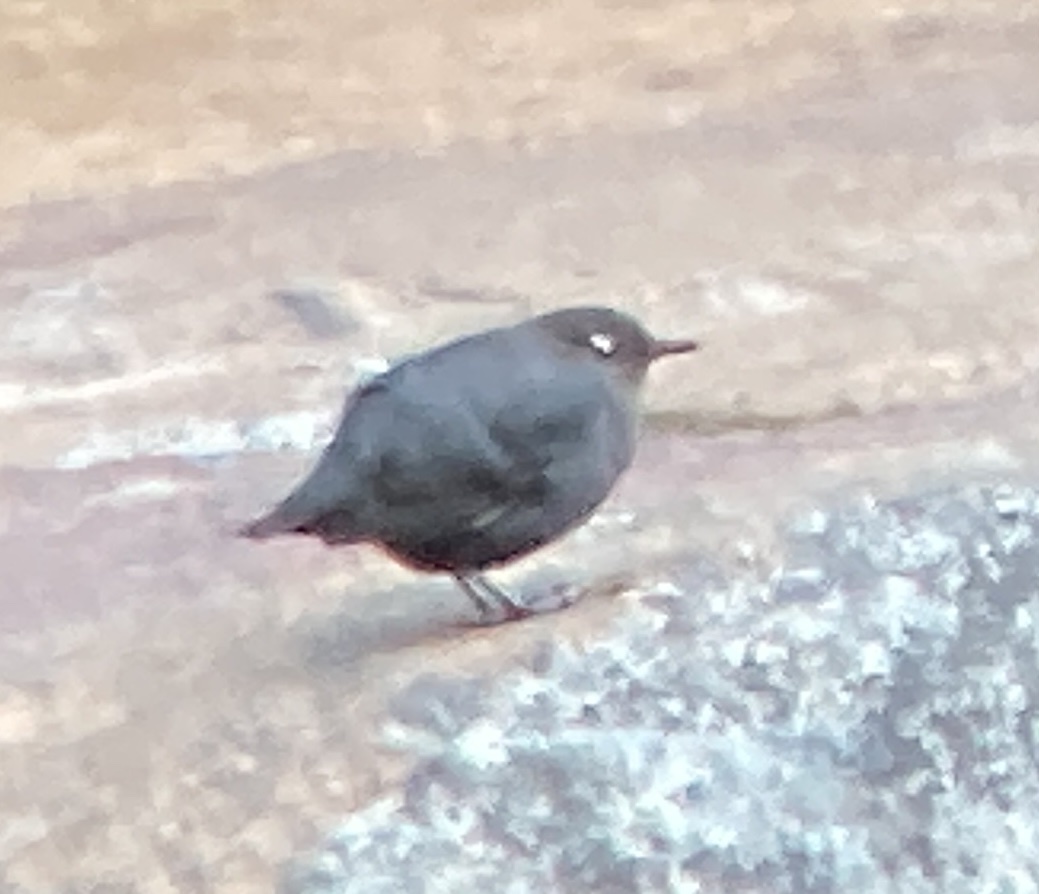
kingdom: Animalia
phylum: Chordata
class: Aves
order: Passeriformes
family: Cinclidae
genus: Cinclus
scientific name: Cinclus mexicanus
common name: American dipper
